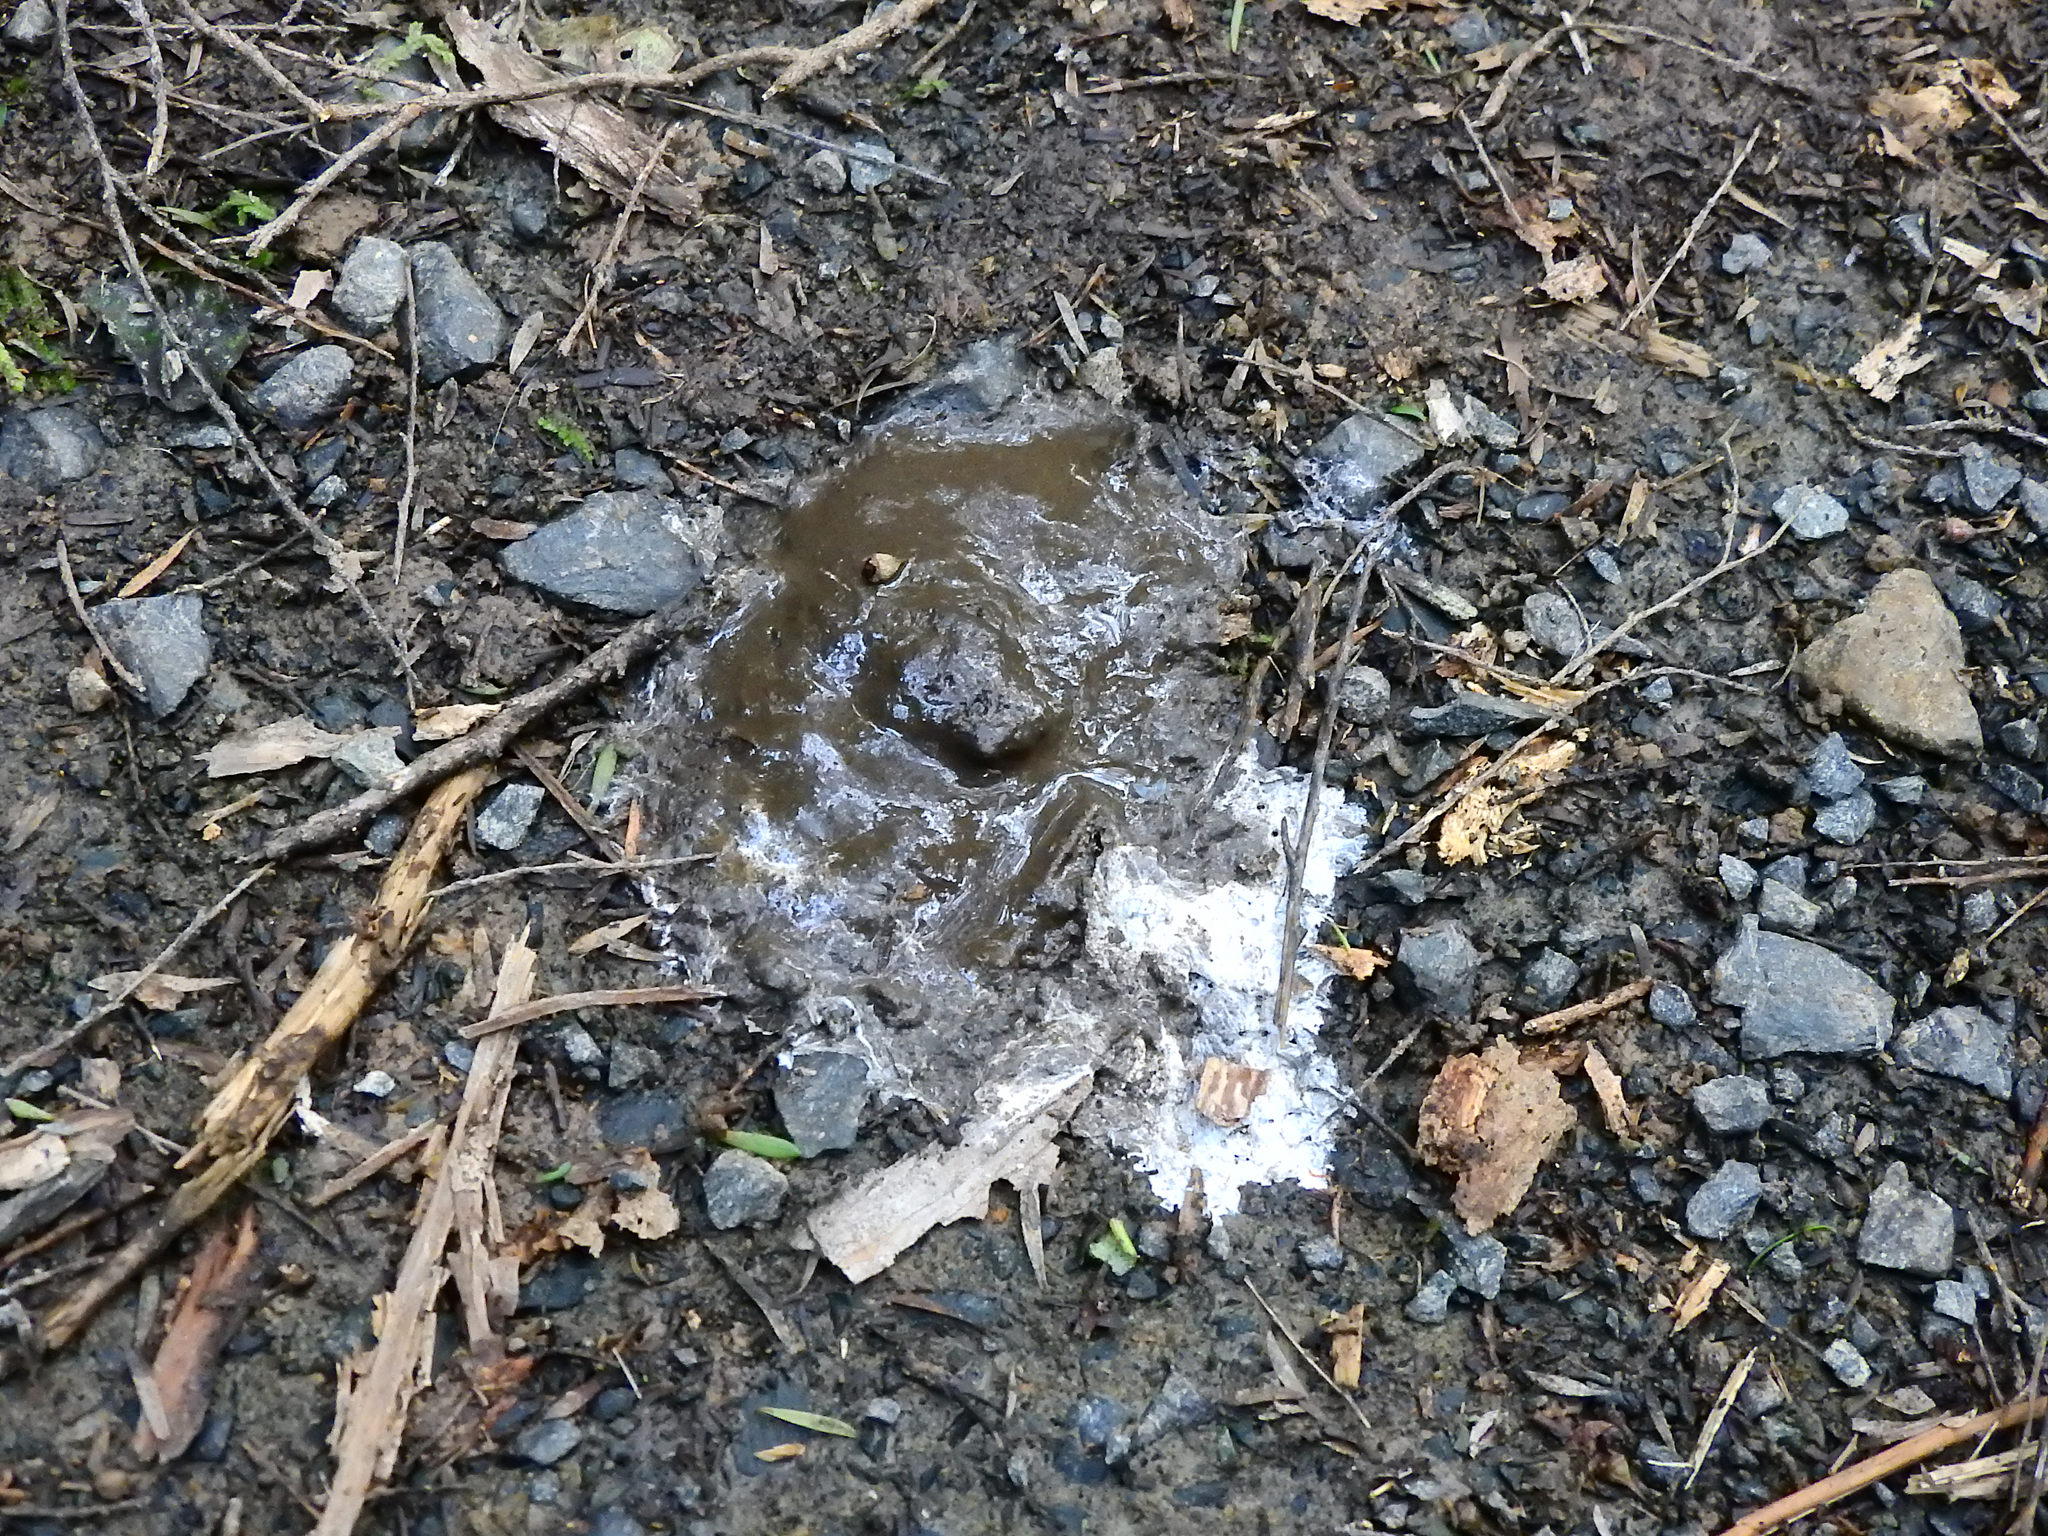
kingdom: Animalia
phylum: Chordata
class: Aves
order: Psittaciformes
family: Psittacidae
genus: Nestor
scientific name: Nestor meridionalis
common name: New zealand kaka
